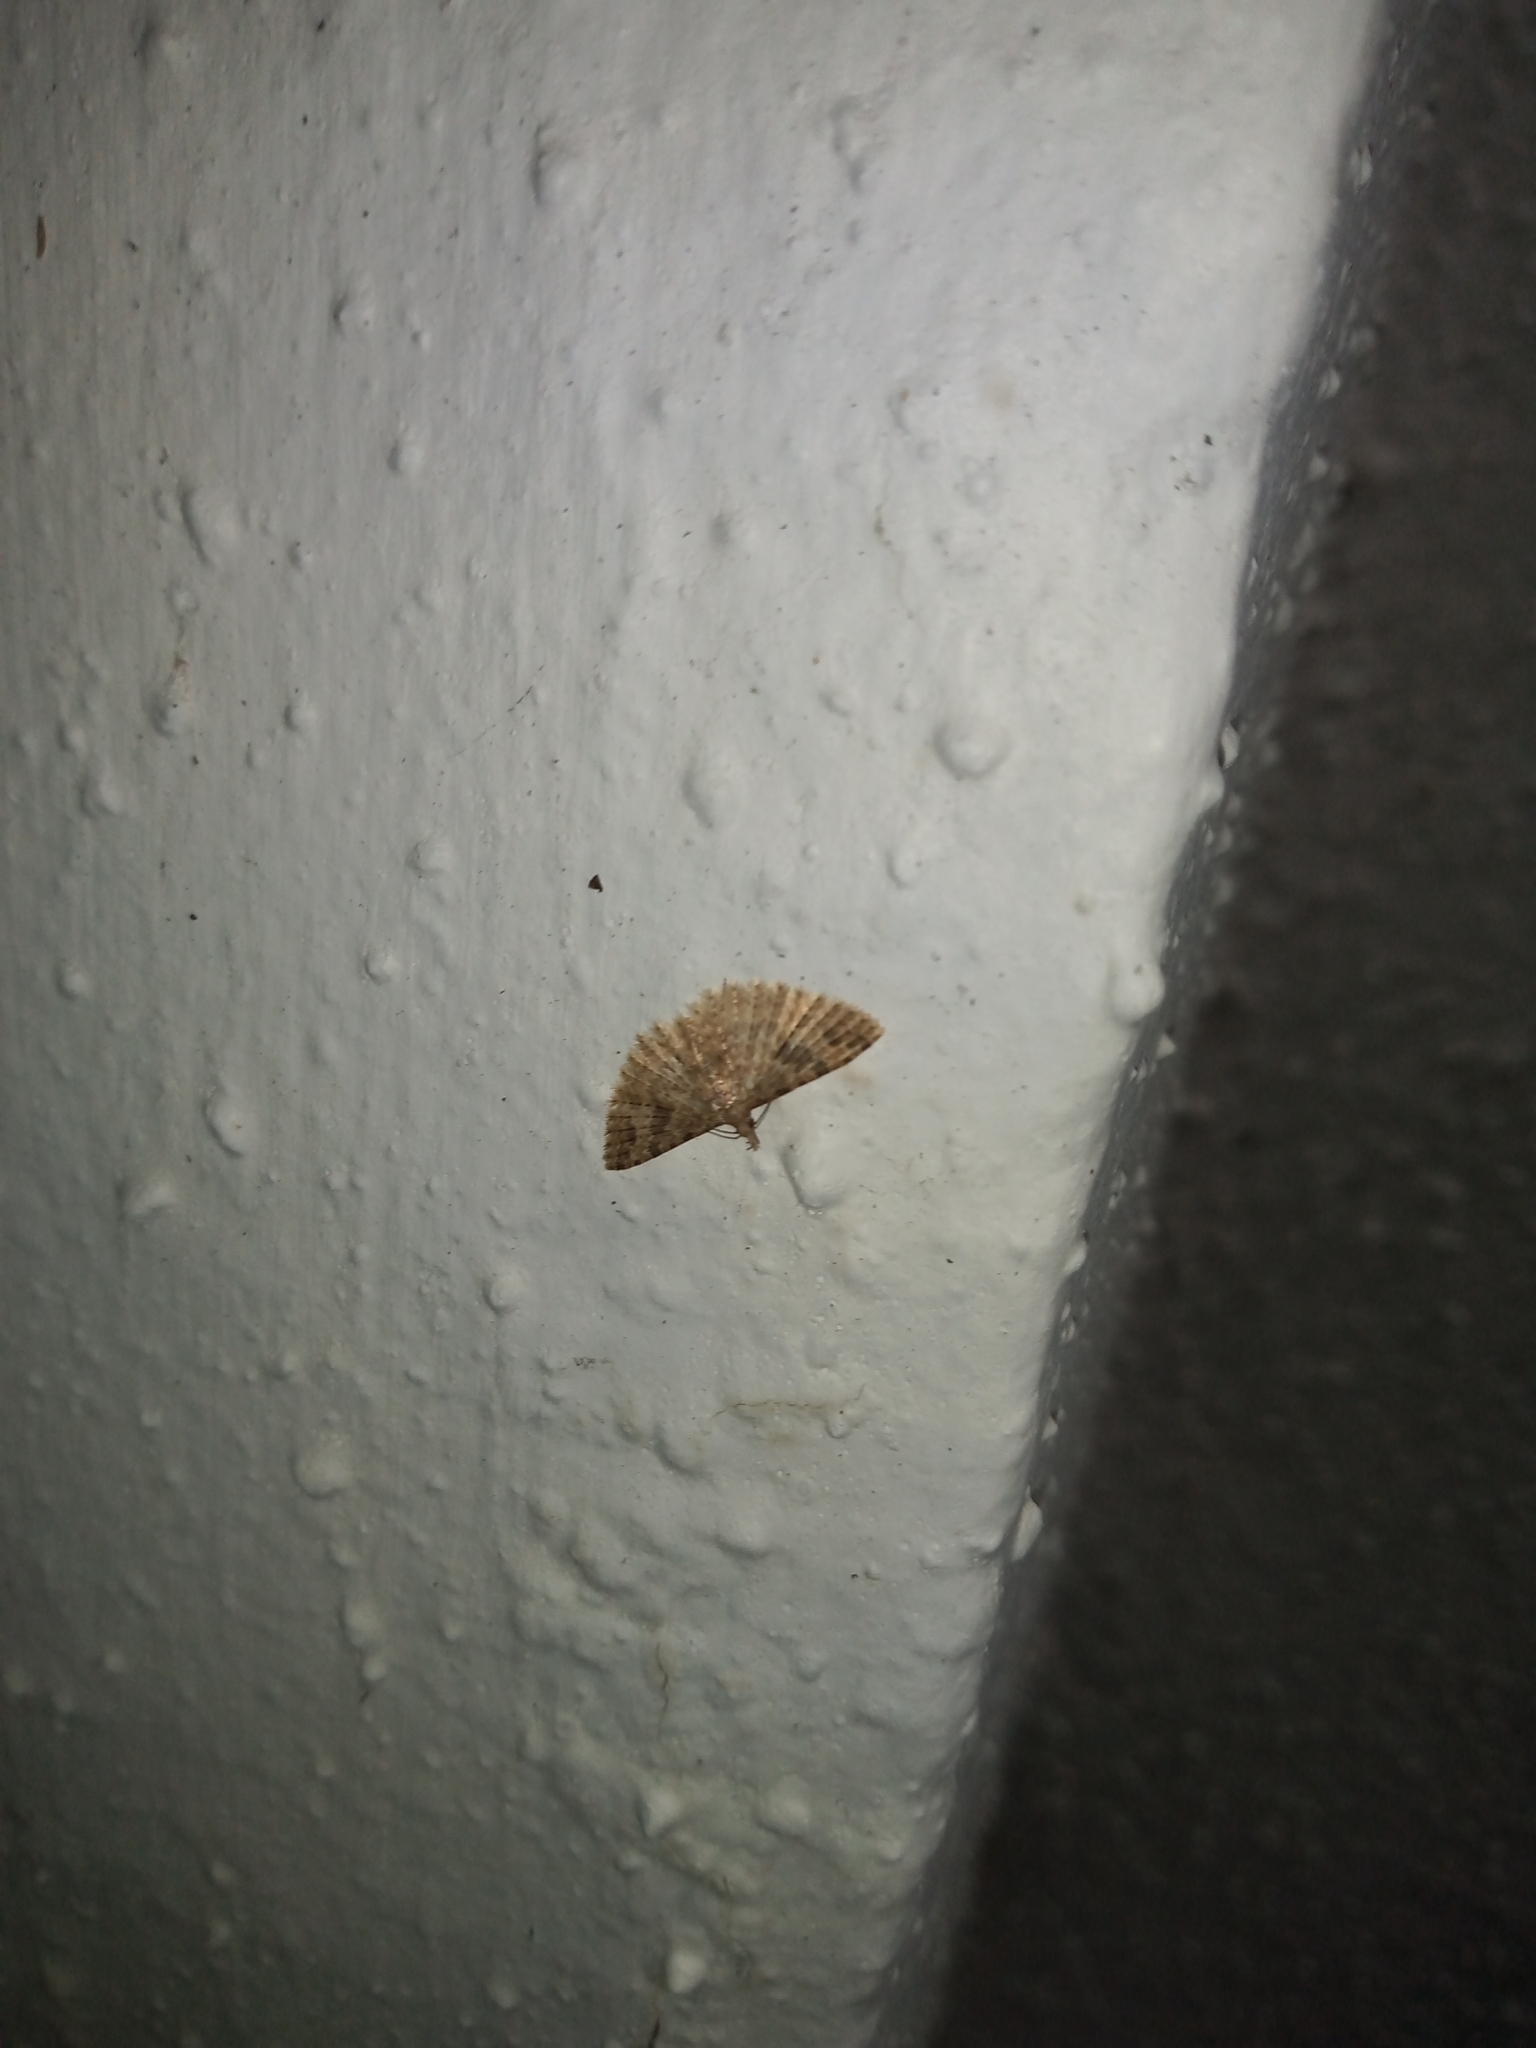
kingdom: Animalia
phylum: Arthropoda
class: Insecta
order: Lepidoptera
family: Alucitidae
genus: Alucita
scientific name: Alucita hexadactyla
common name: Twenty-plume moth
